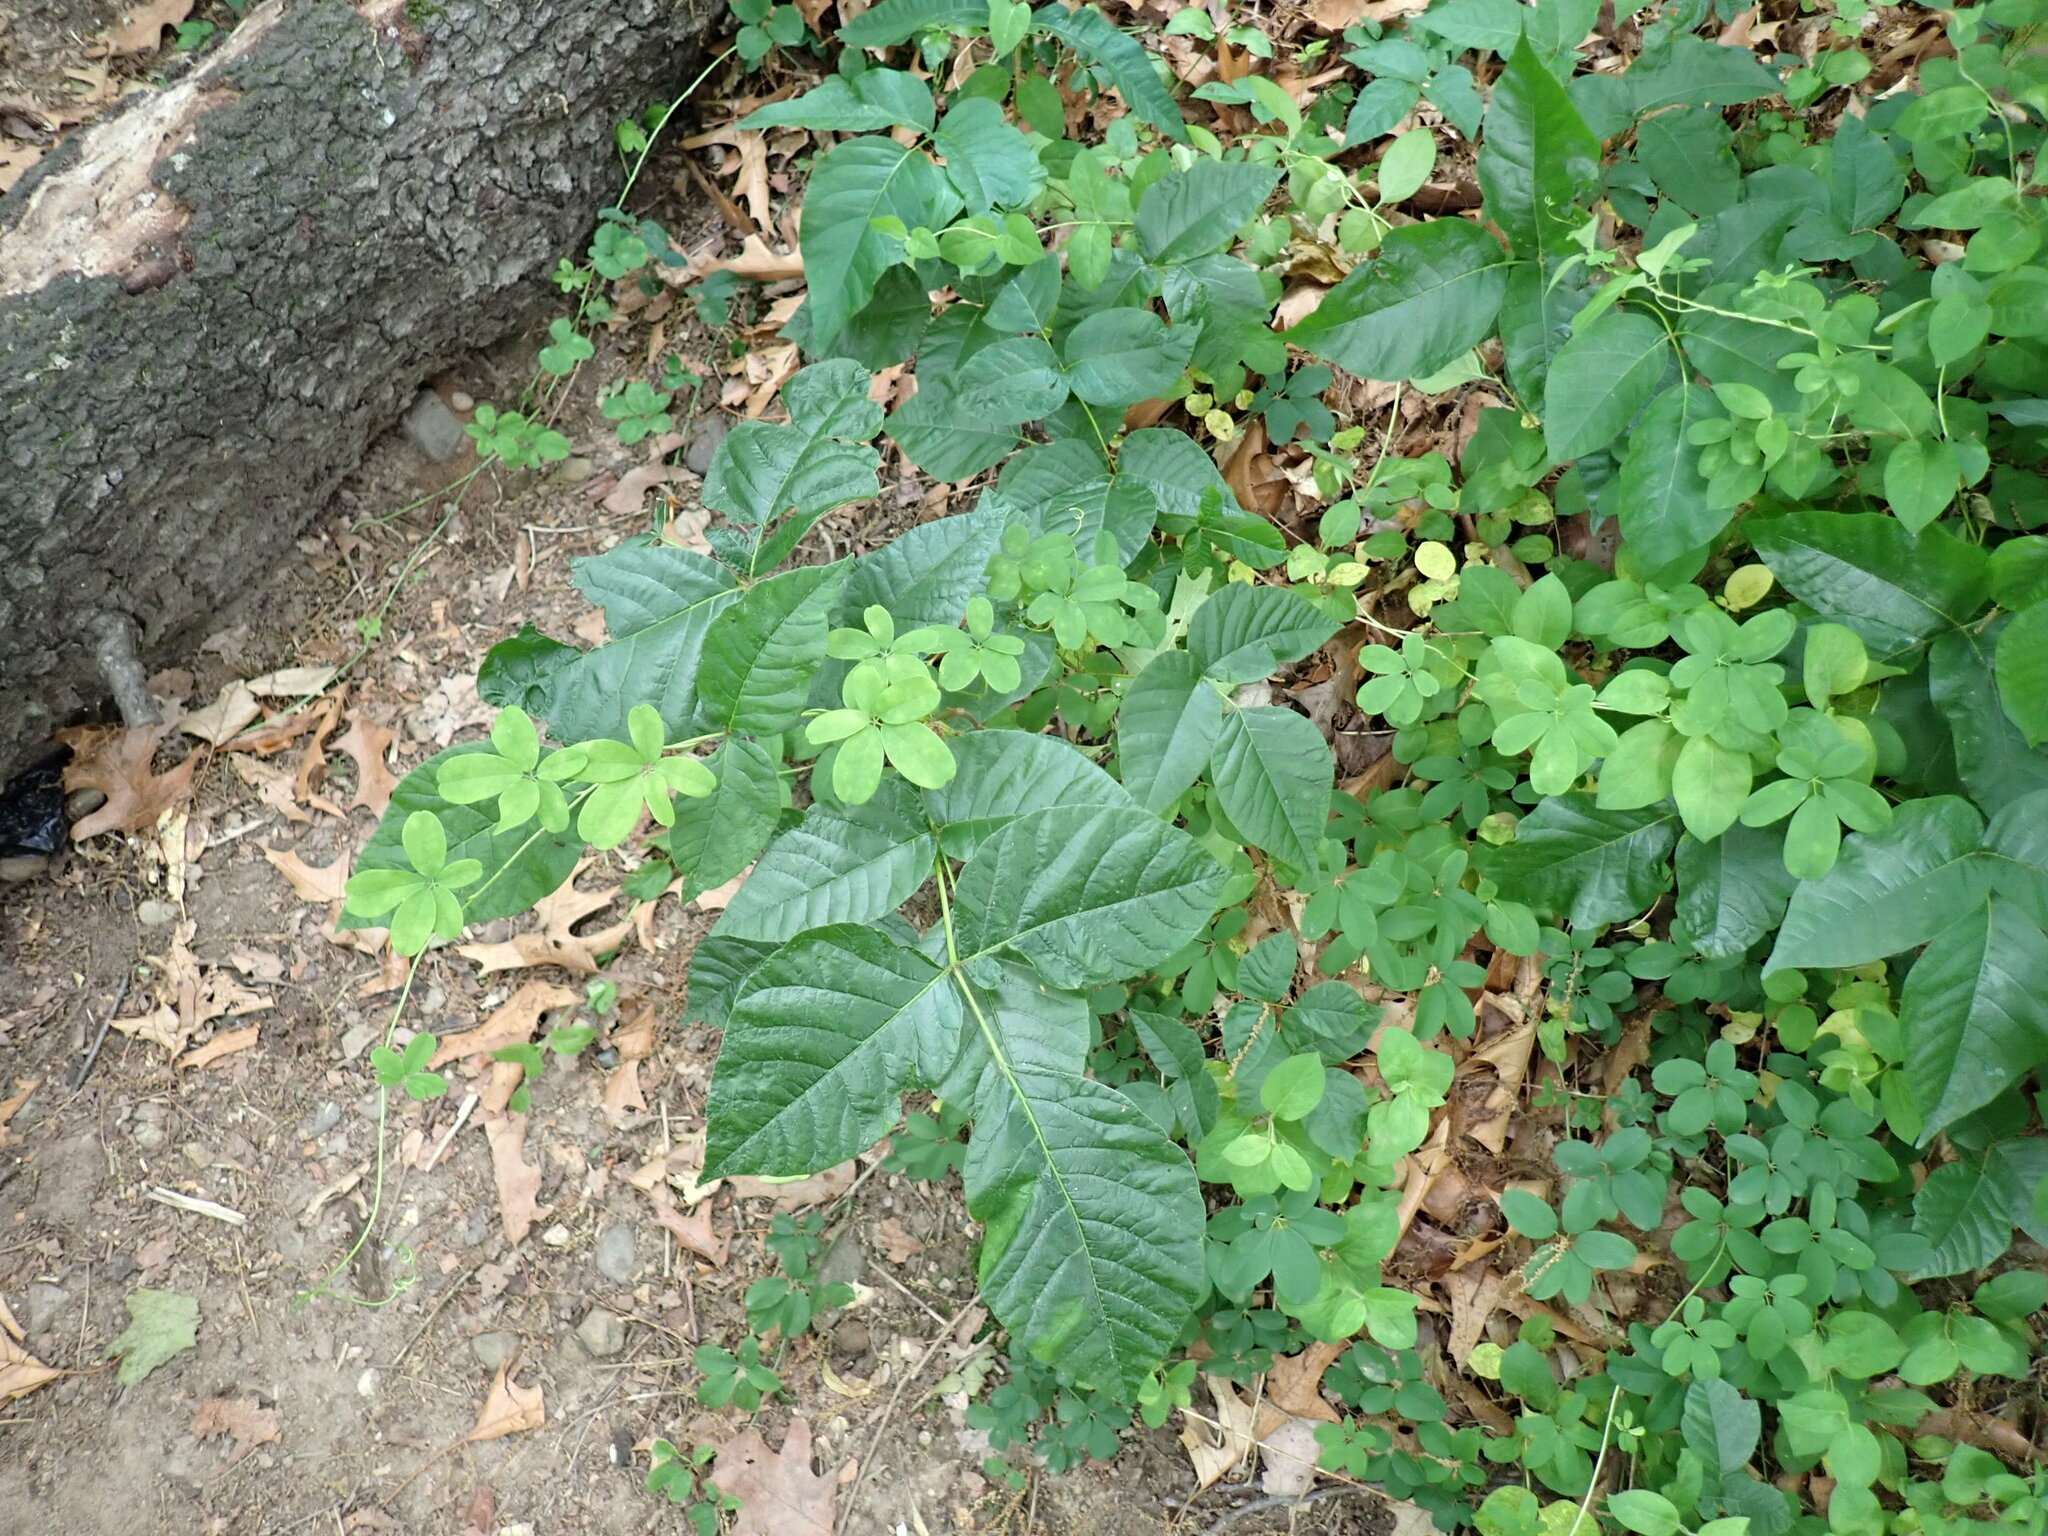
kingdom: Plantae
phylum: Tracheophyta
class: Magnoliopsida
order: Ranunculales
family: Lardizabalaceae
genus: Akebia
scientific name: Akebia quinata
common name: Five-leaf akebia
